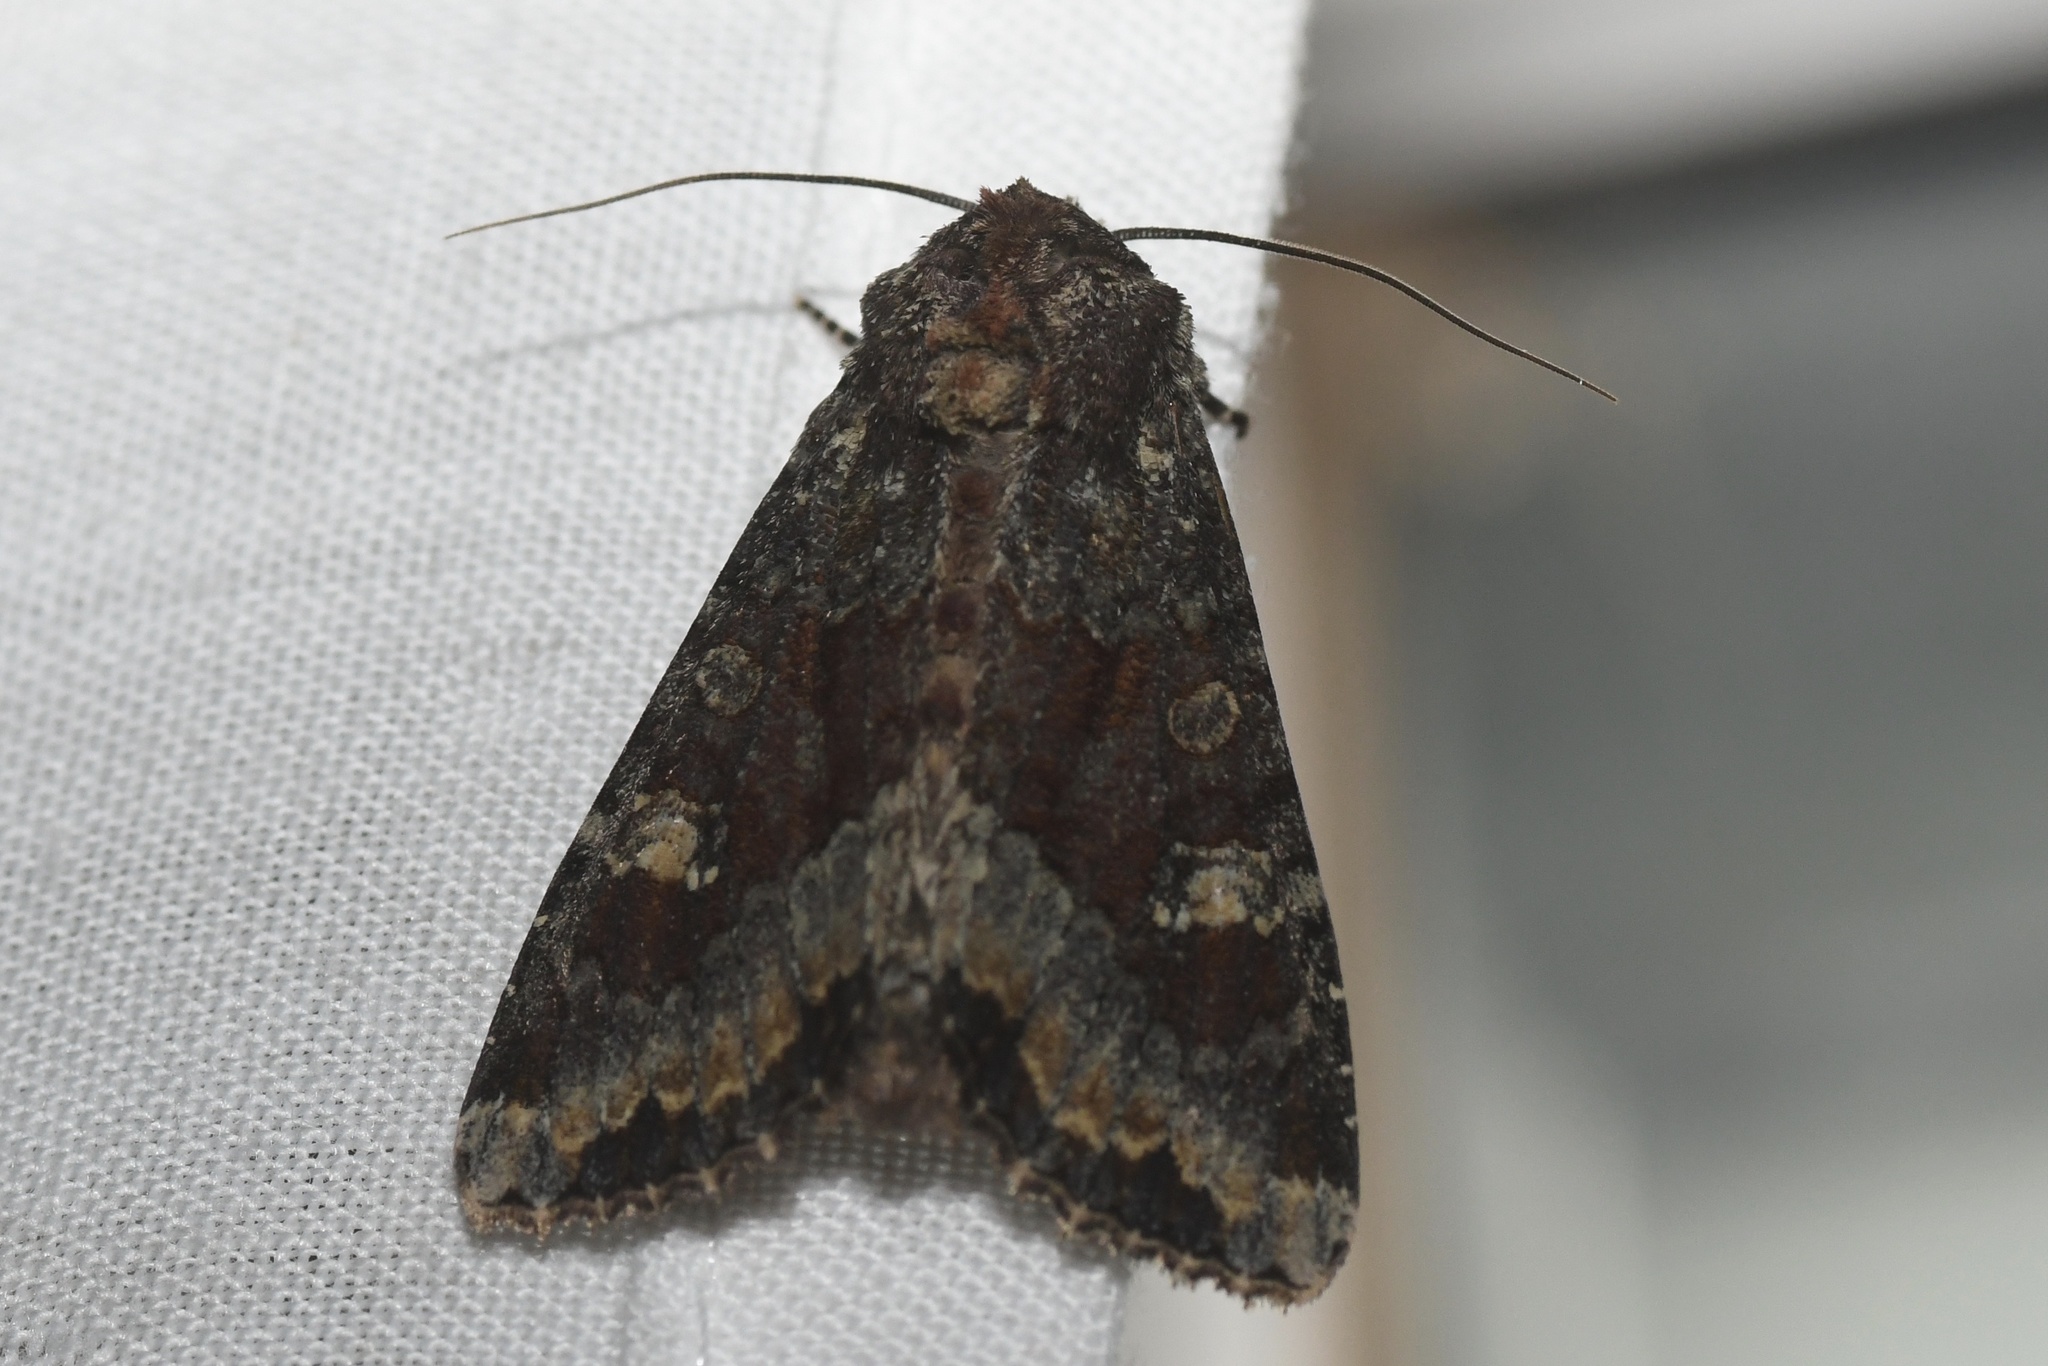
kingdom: Animalia
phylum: Arthropoda
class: Insecta
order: Lepidoptera
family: Noctuidae
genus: Apamea
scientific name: Apamea amputatrix
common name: Yellow-headed cutworm moth
